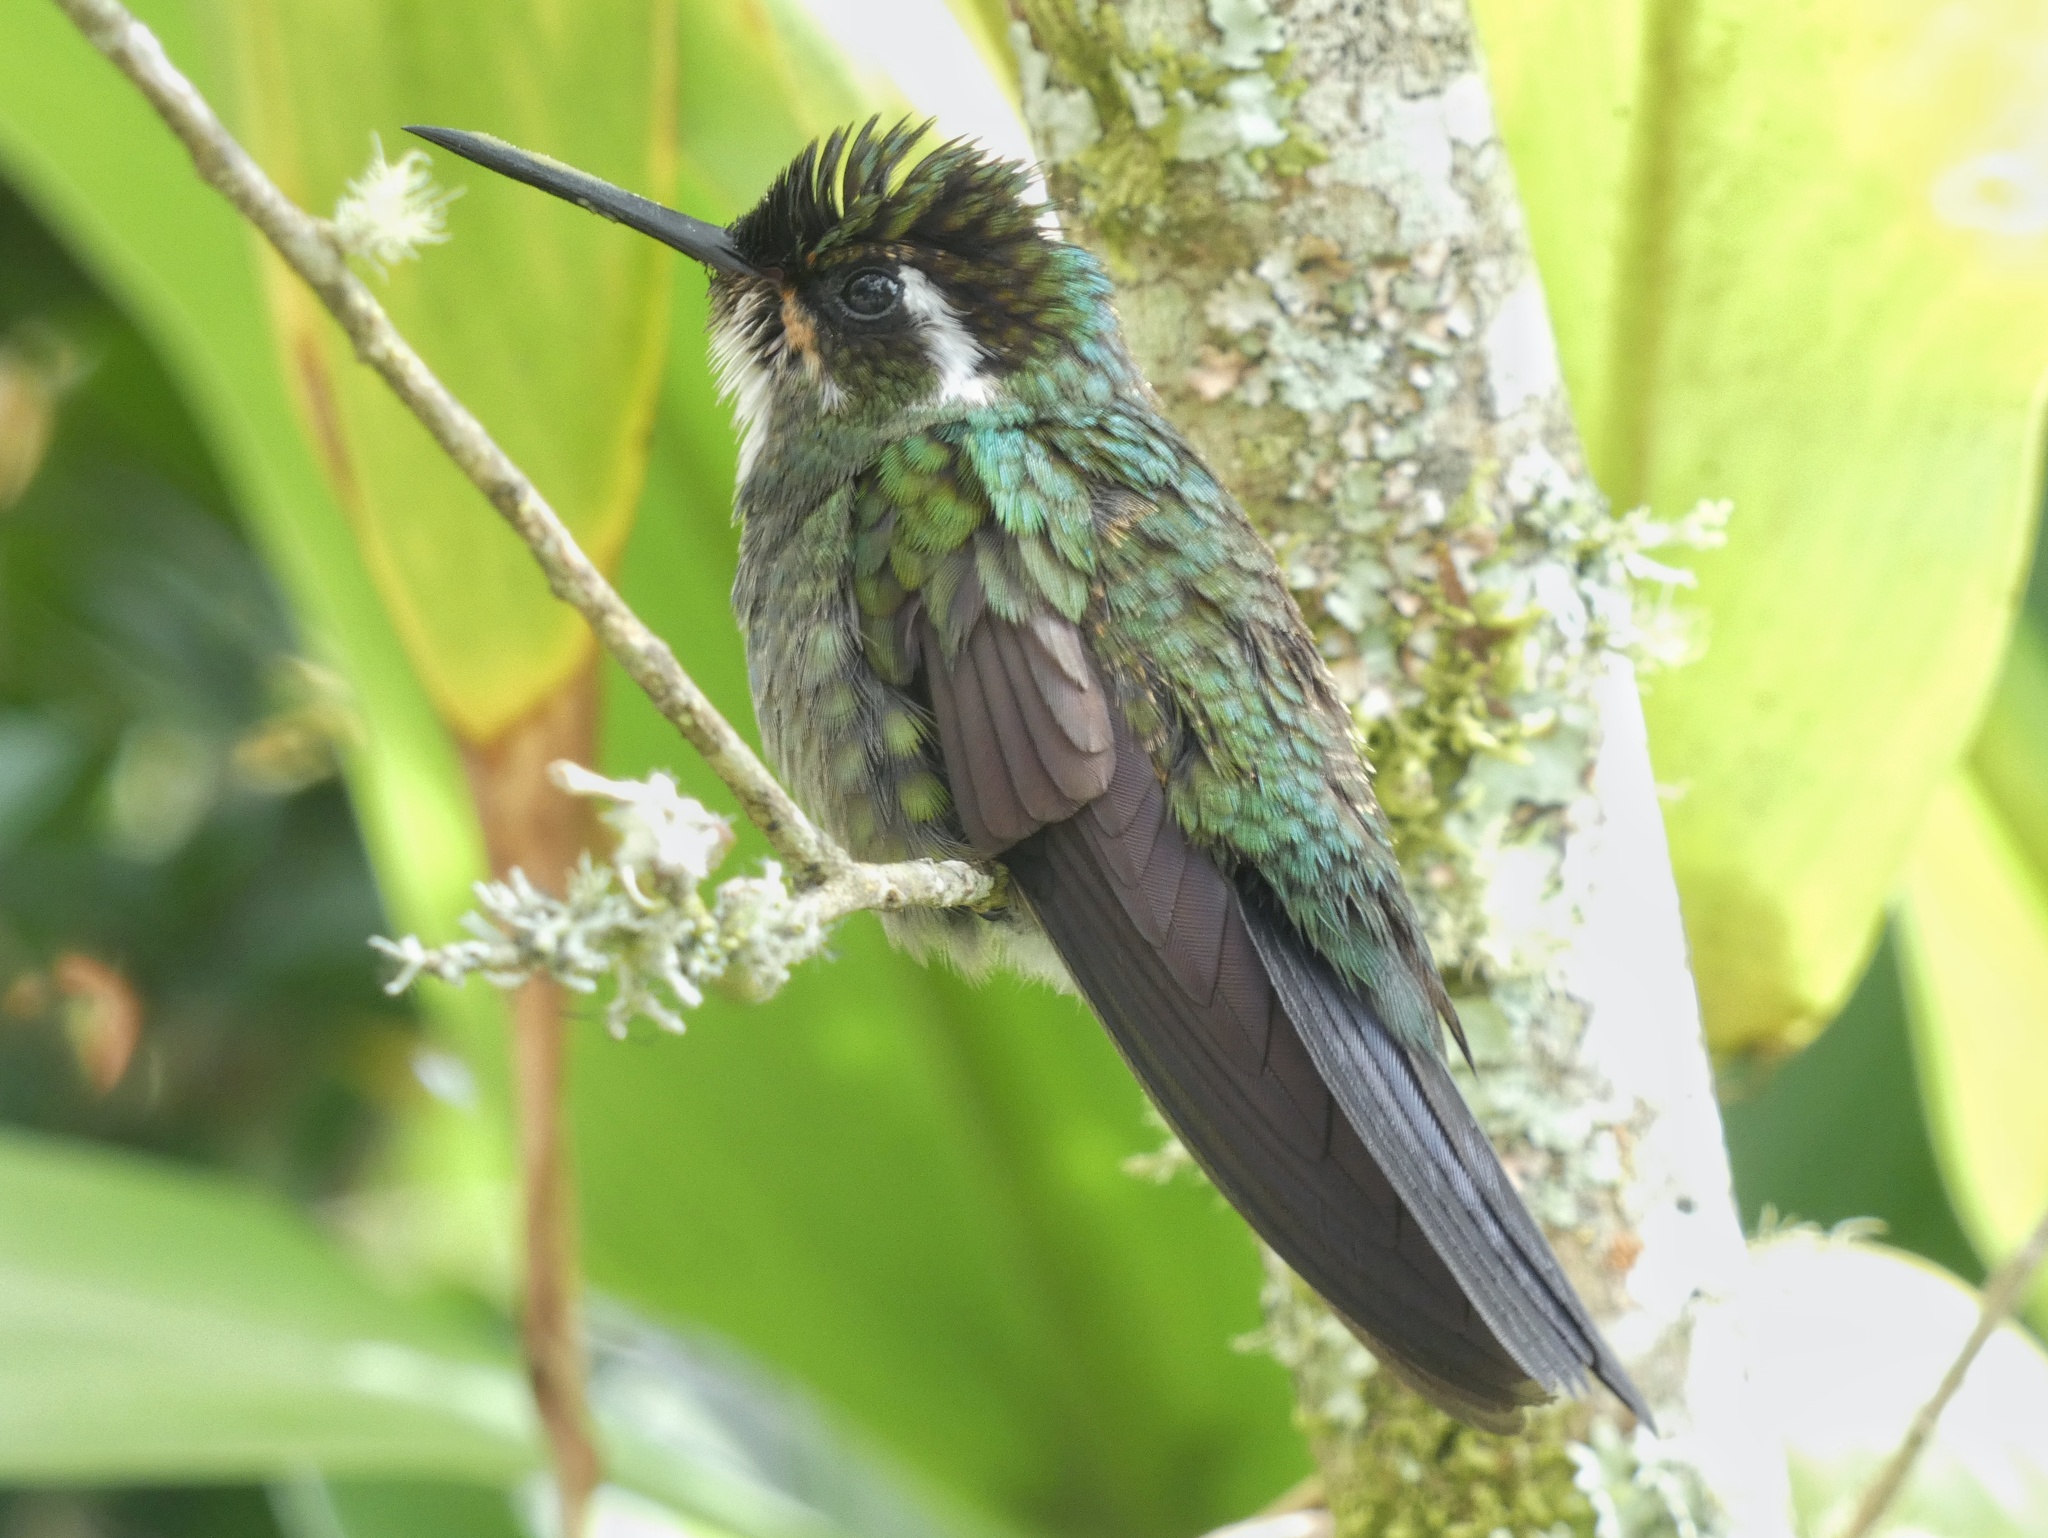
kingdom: Animalia
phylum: Chordata
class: Aves
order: Apodiformes
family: Trochilidae
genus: Lampornis
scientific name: Lampornis castaneoventris
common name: White-throated mountain-gem
